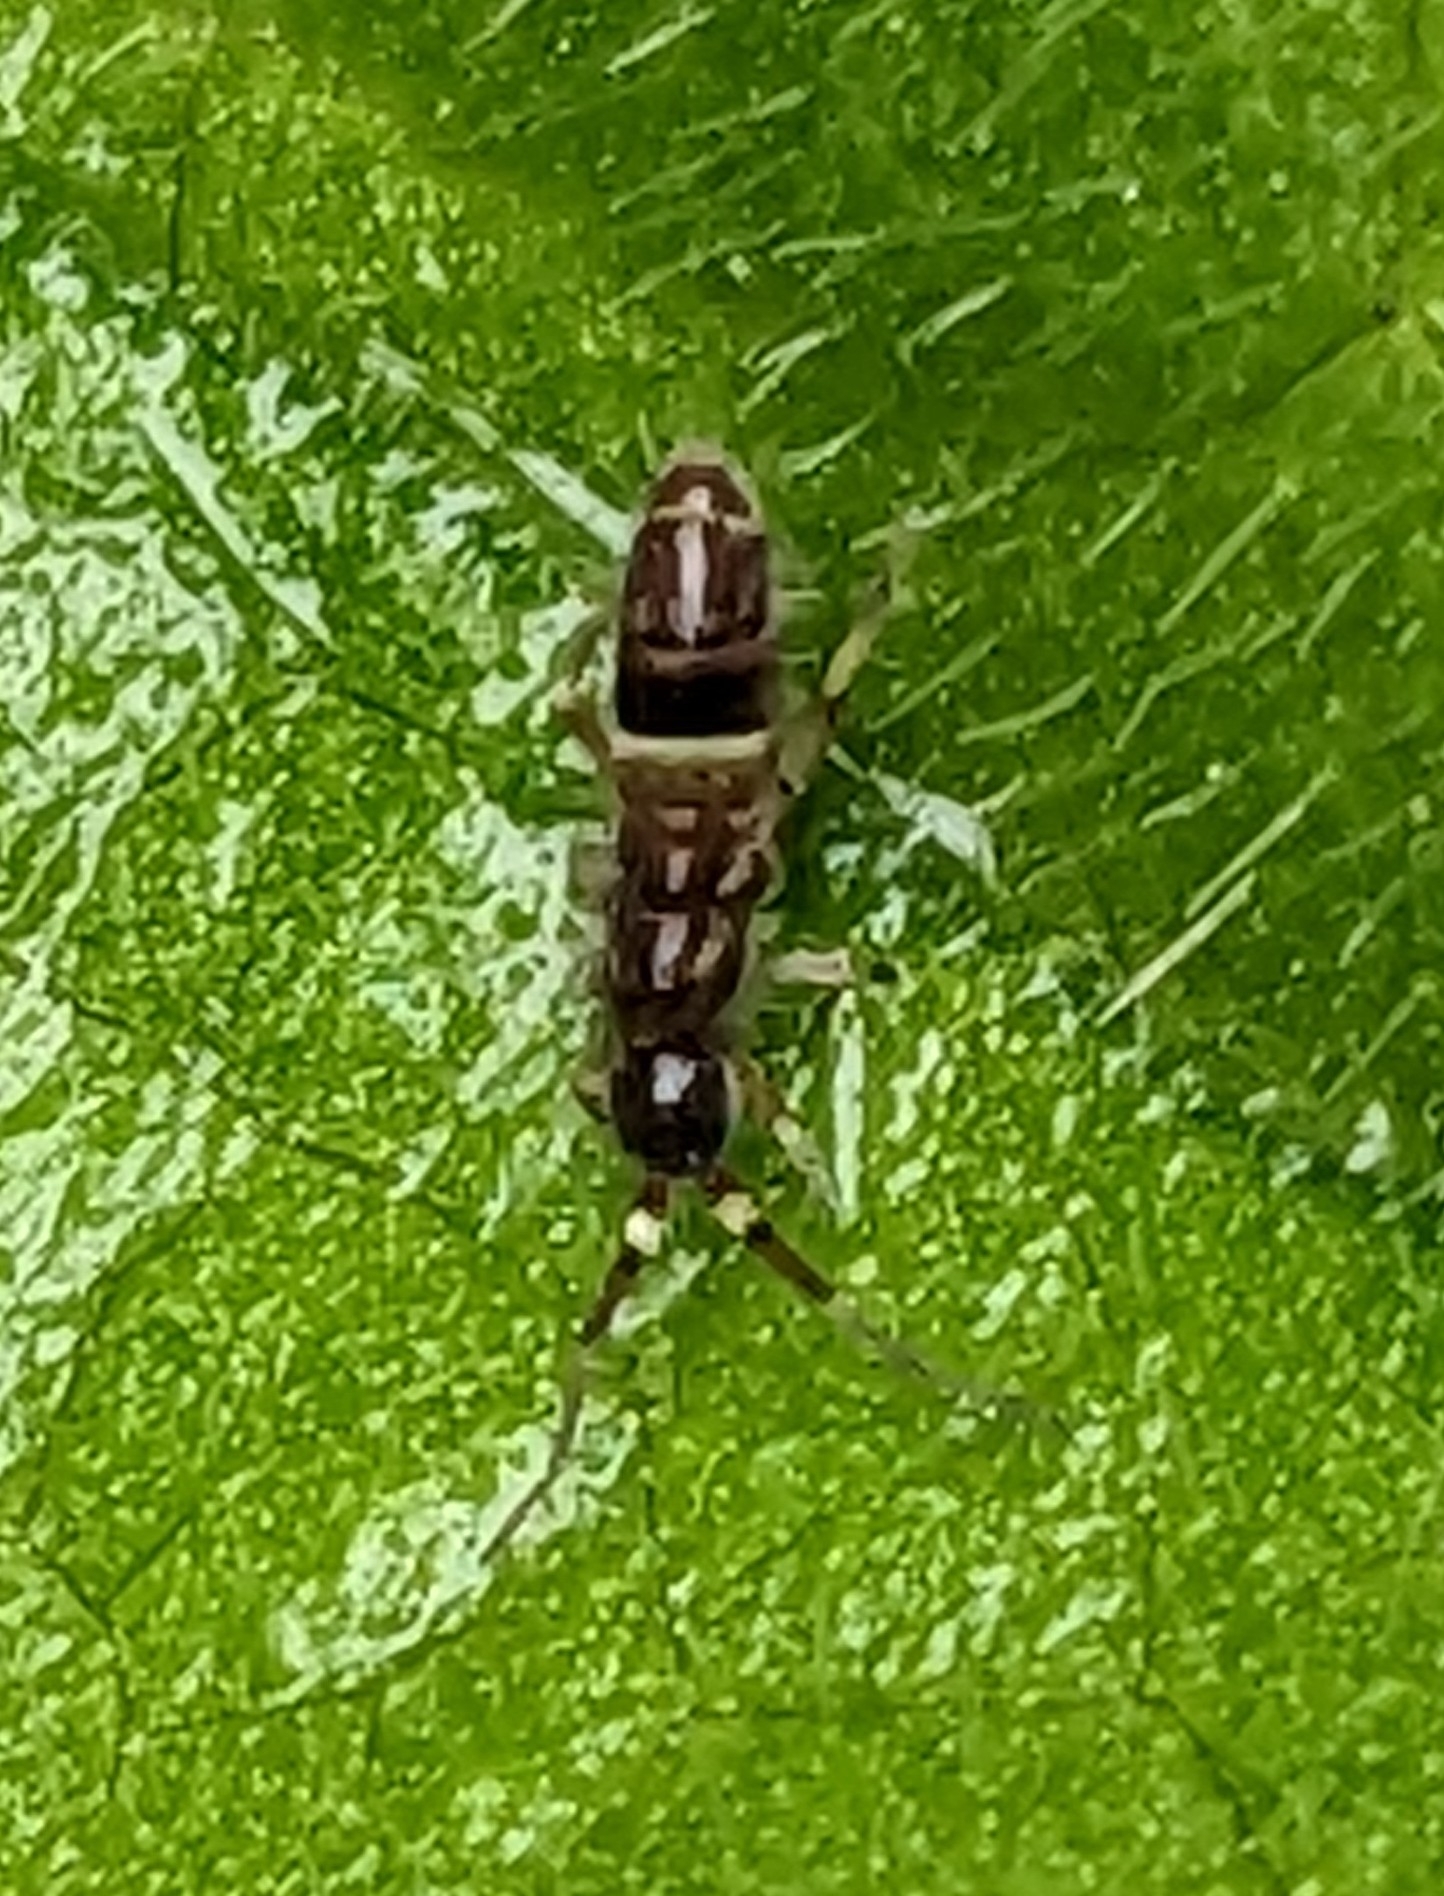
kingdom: Animalia
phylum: Arthropoda
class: Collembola
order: Entomobryomorpha
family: Orchesellidae
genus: Orchesella
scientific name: Orchesella cincta
